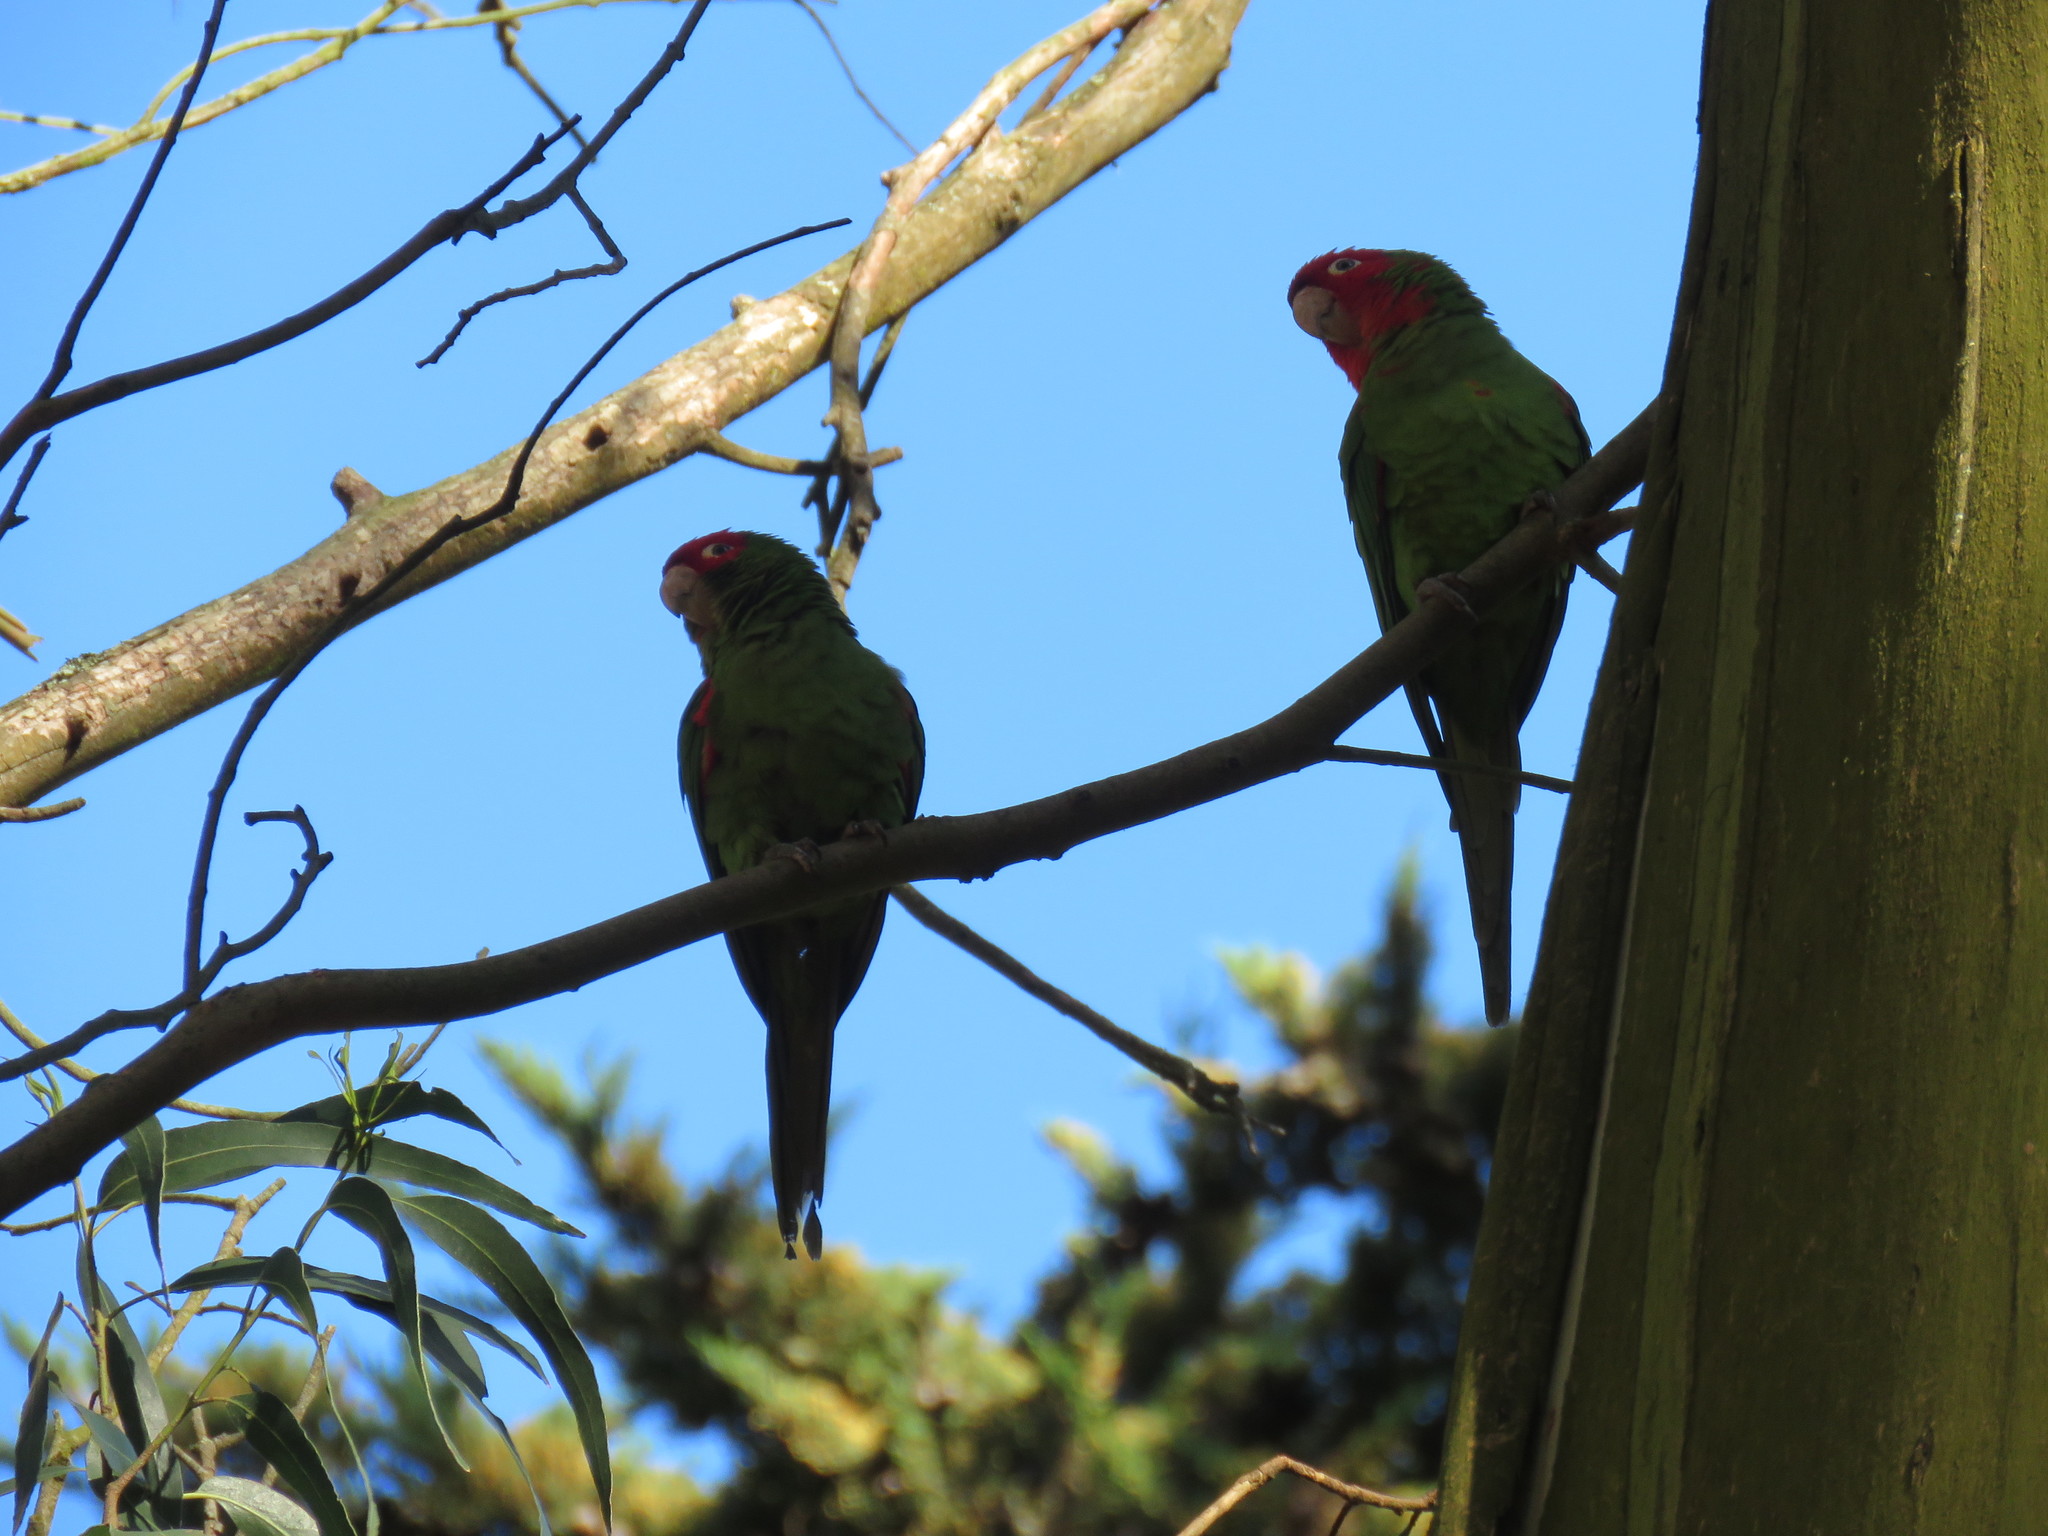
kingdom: Animalia
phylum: Chordata
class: Aves
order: Psittaciformes
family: Psittacidae
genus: Aratinga
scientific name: Aratinga erythrogenys
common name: Red-masked parakeet
